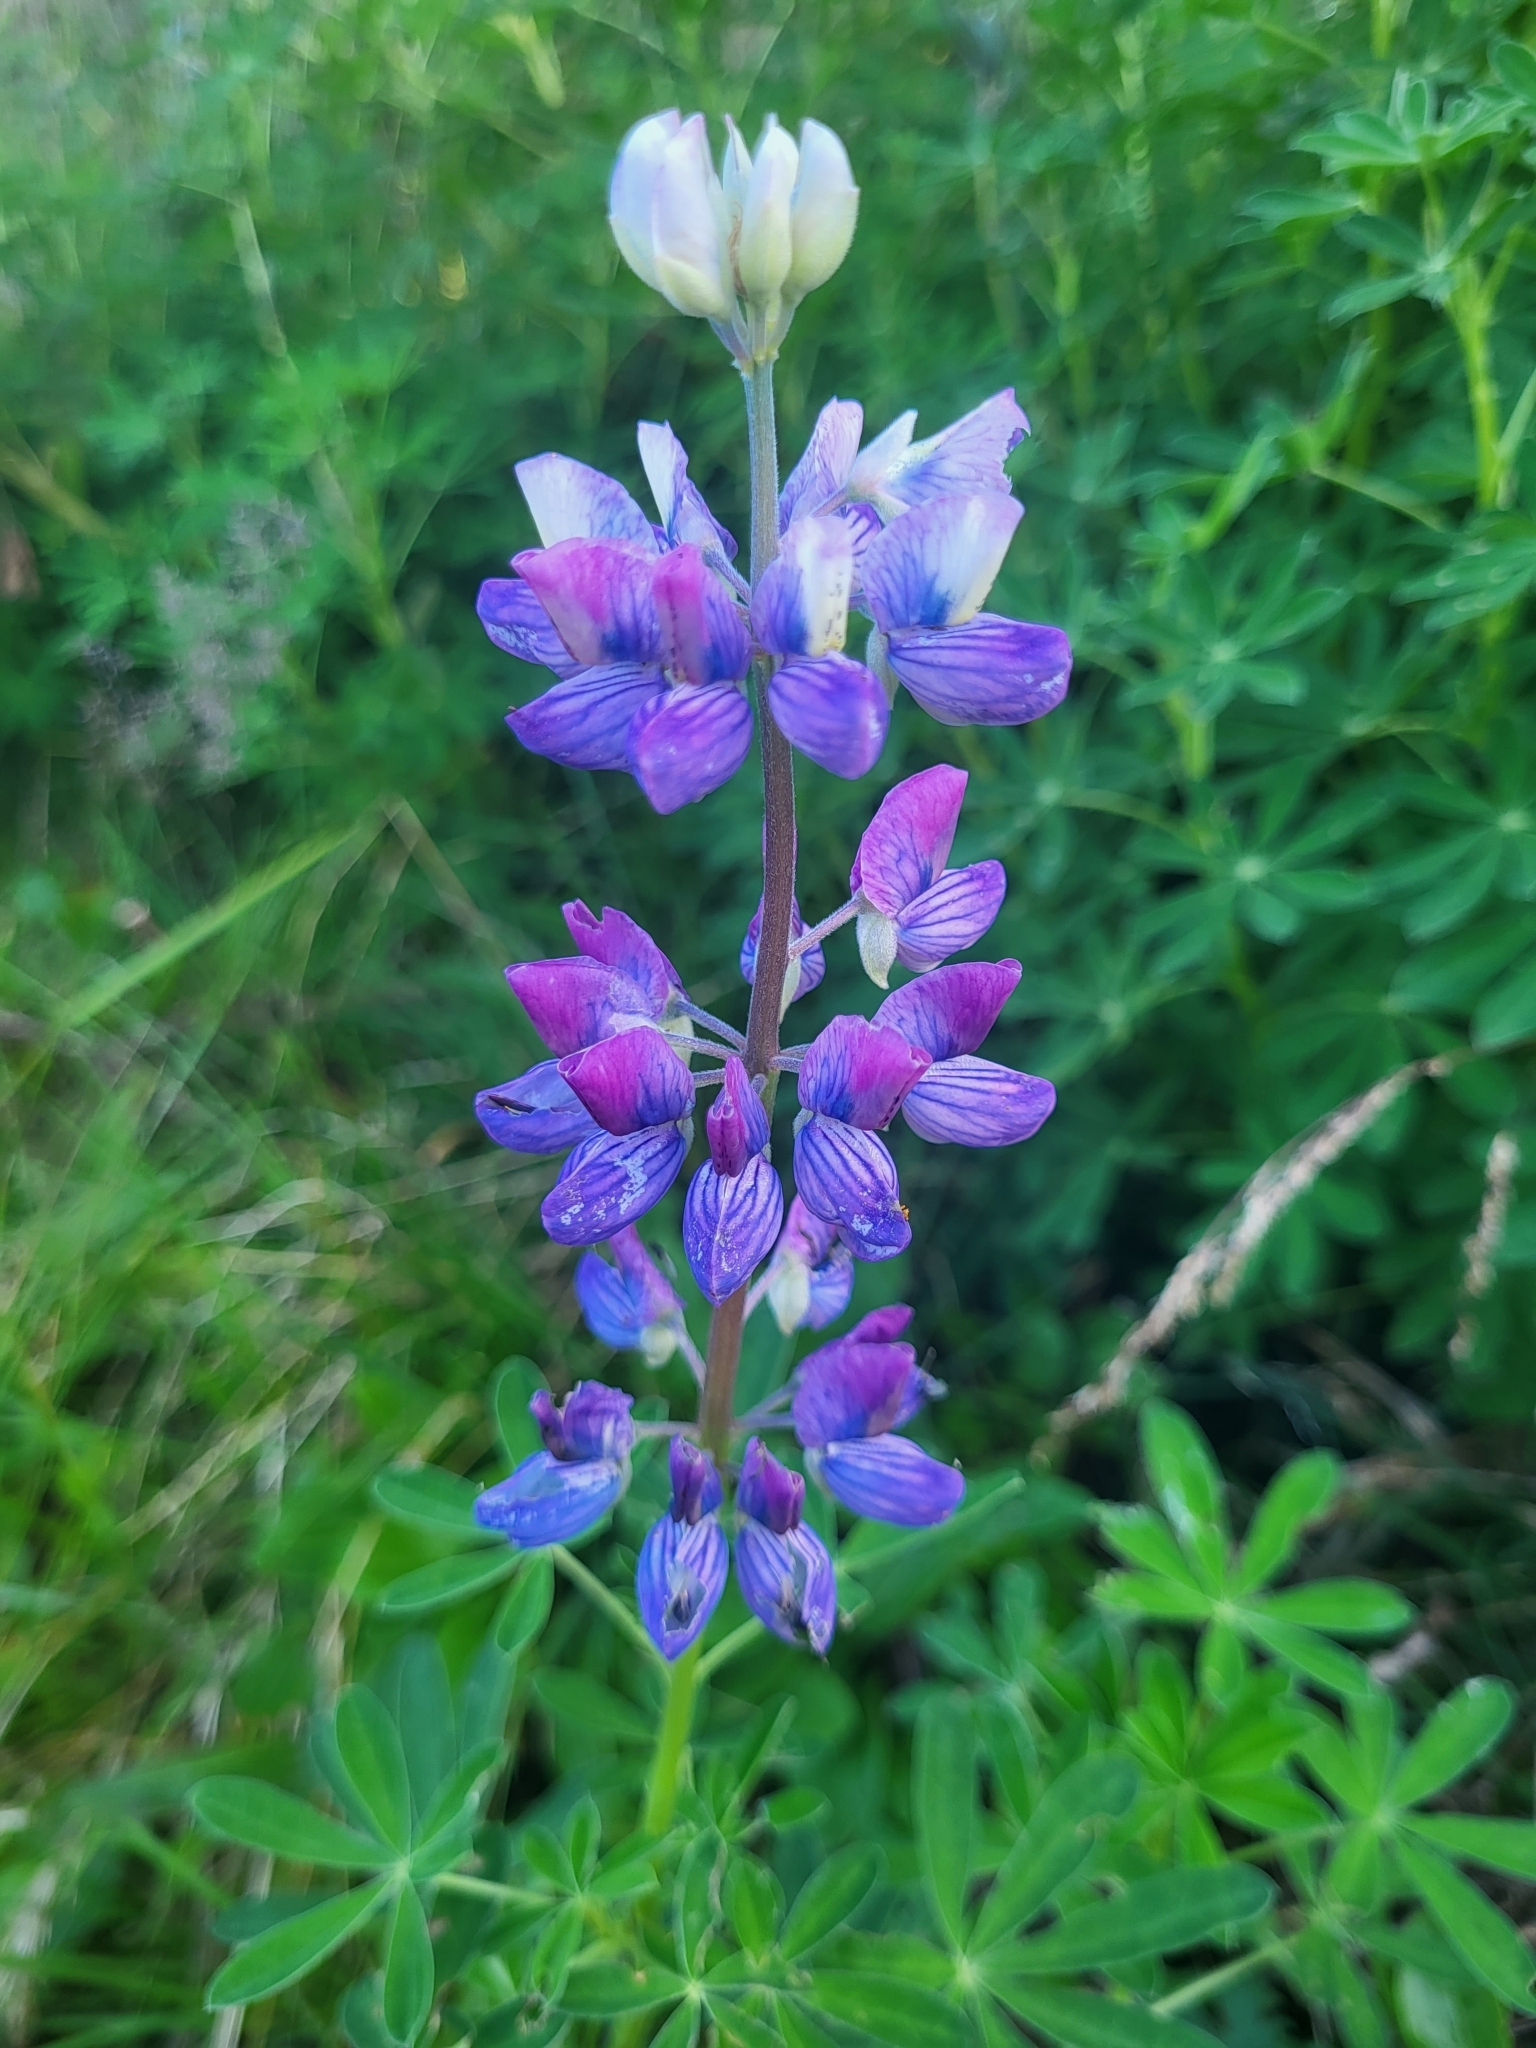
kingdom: Plantae
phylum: Tracheophyta
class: Magnoliopsida
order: Fabales
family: Fabaceae
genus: Lupinus
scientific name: Lupinus nootkatensis
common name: Nootka lupine
